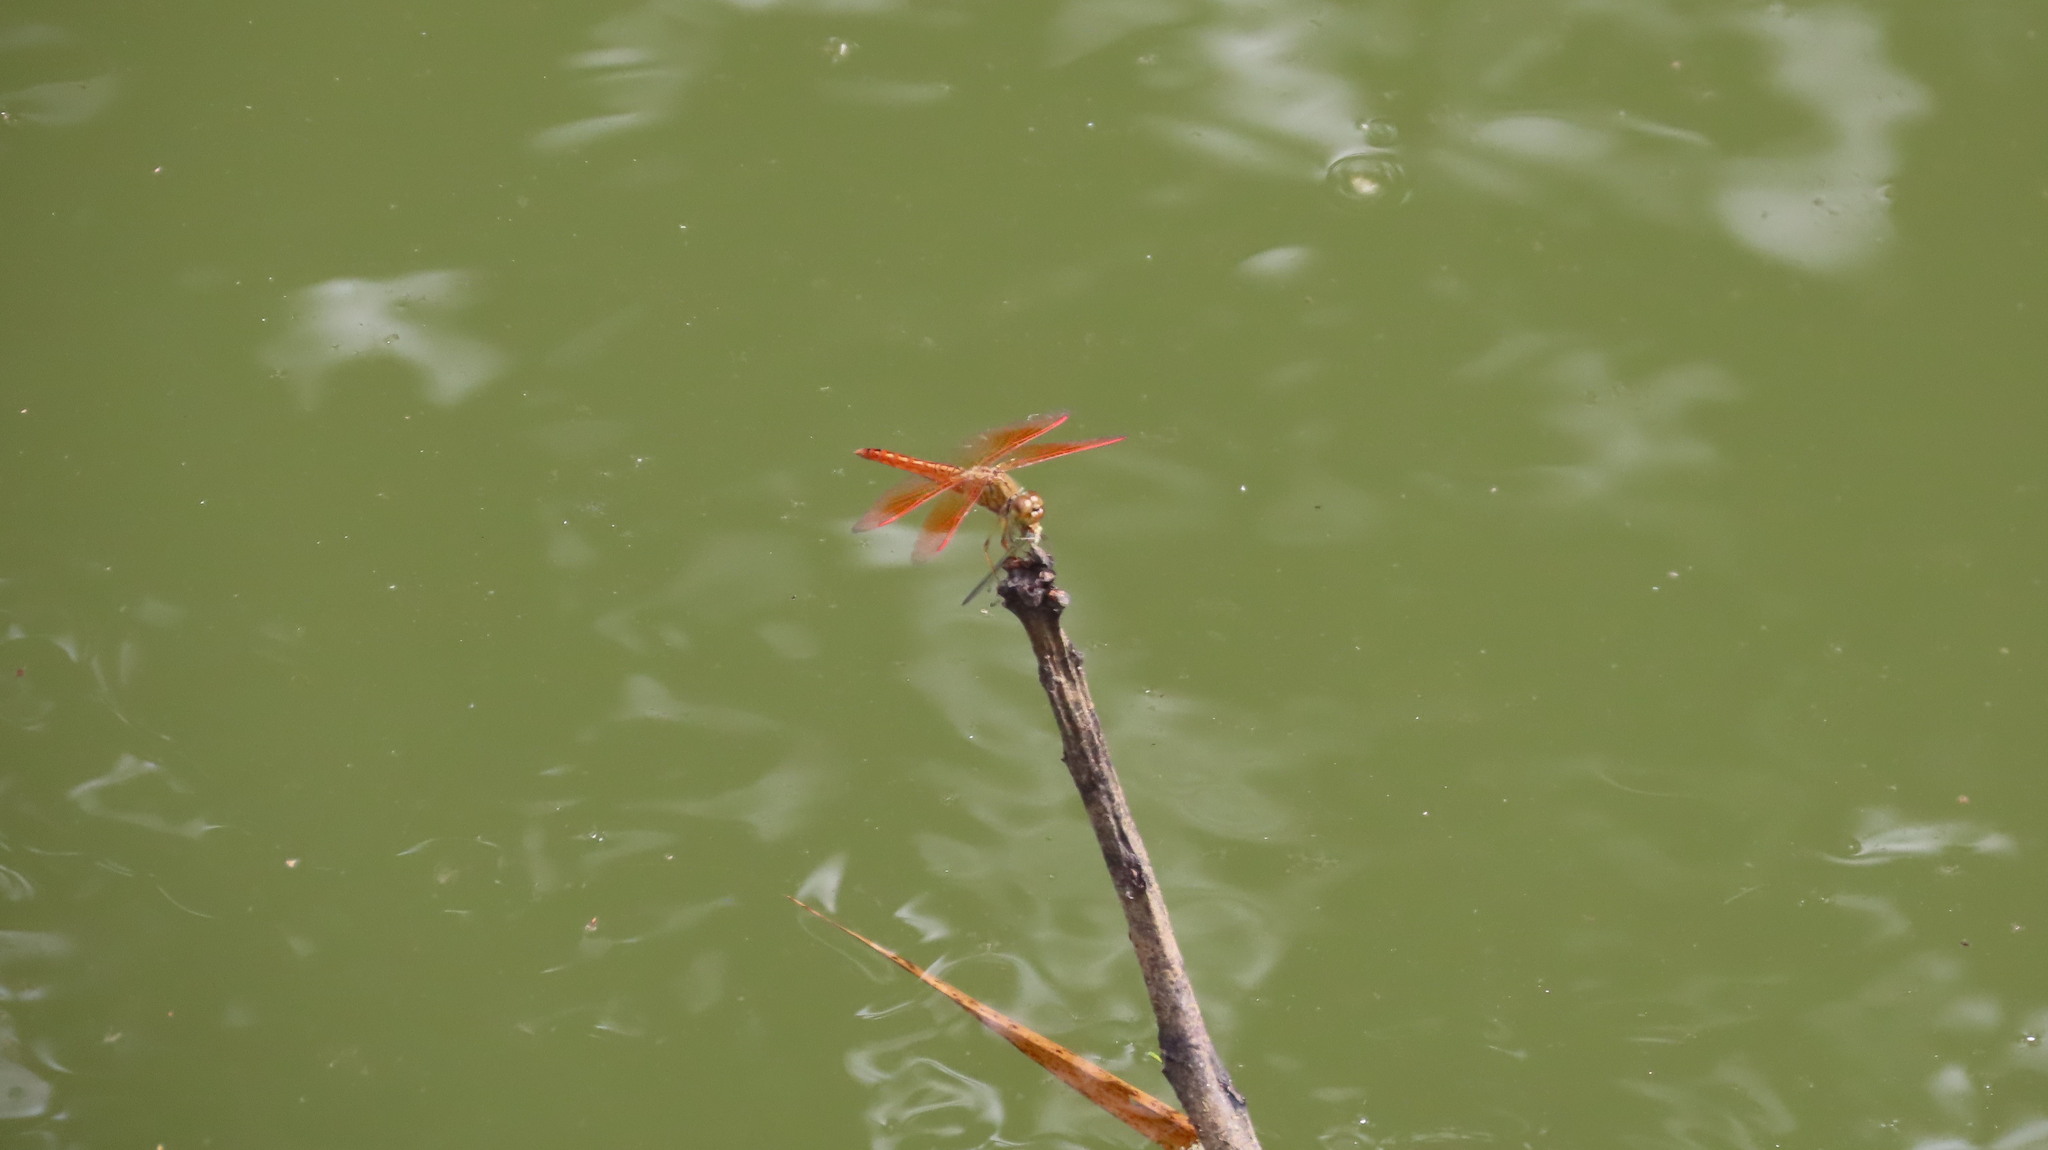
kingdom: Animalia
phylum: Arthropoda
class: Insecta
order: Odonata
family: Libellulidae
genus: Brachythemis
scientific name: Brachythemis contaminata
